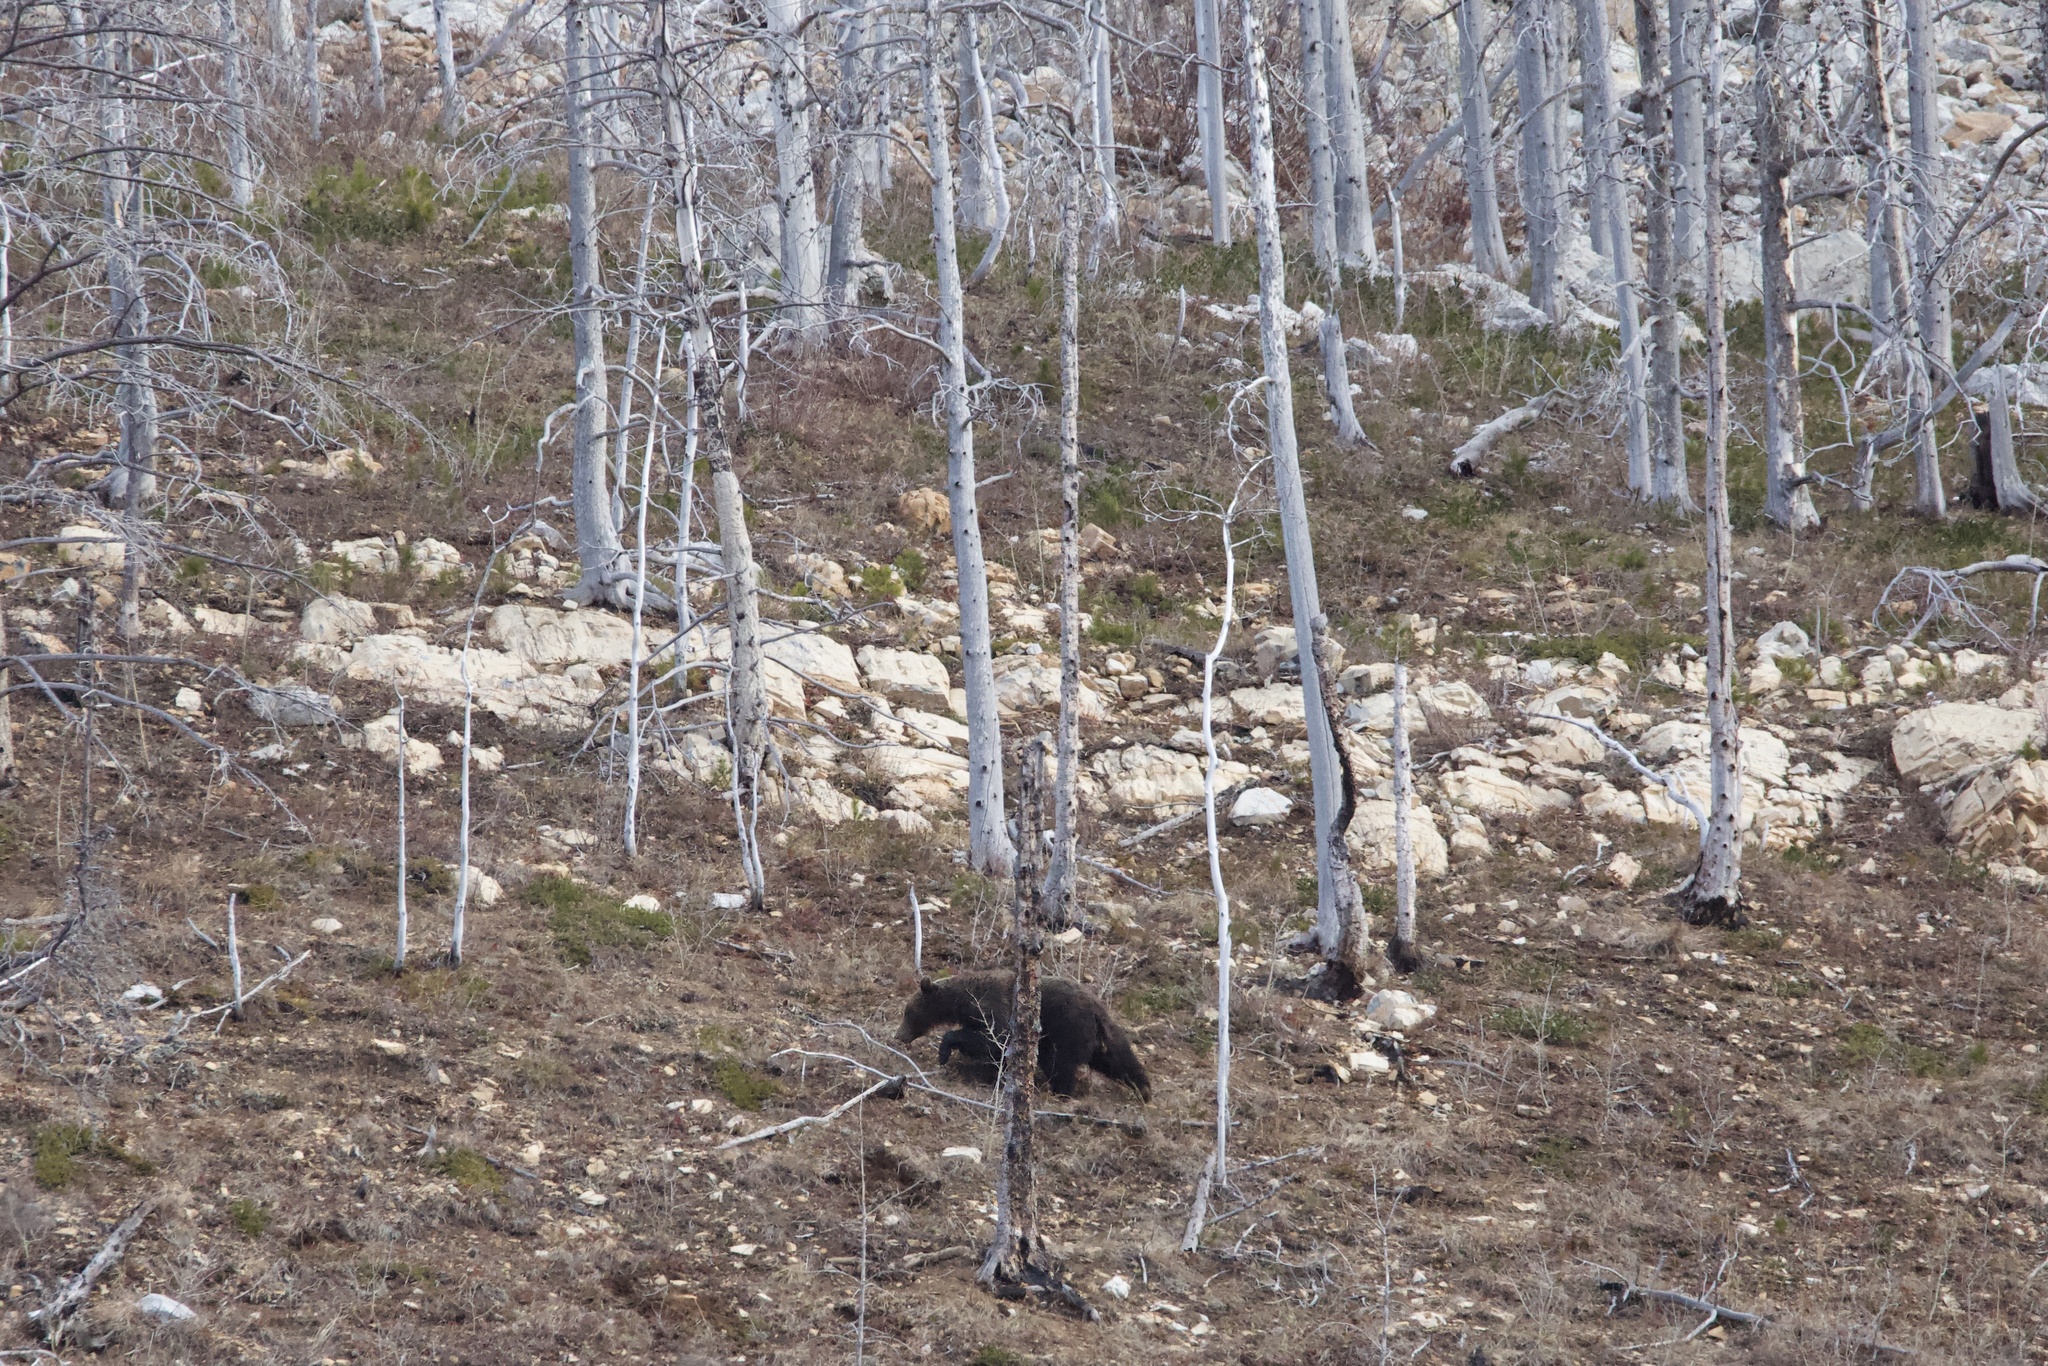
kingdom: Animalia
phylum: Chordata
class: Mammalia
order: Carnivora
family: Ursidae
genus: Ursus
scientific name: Ursus arctos
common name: Brown bear
